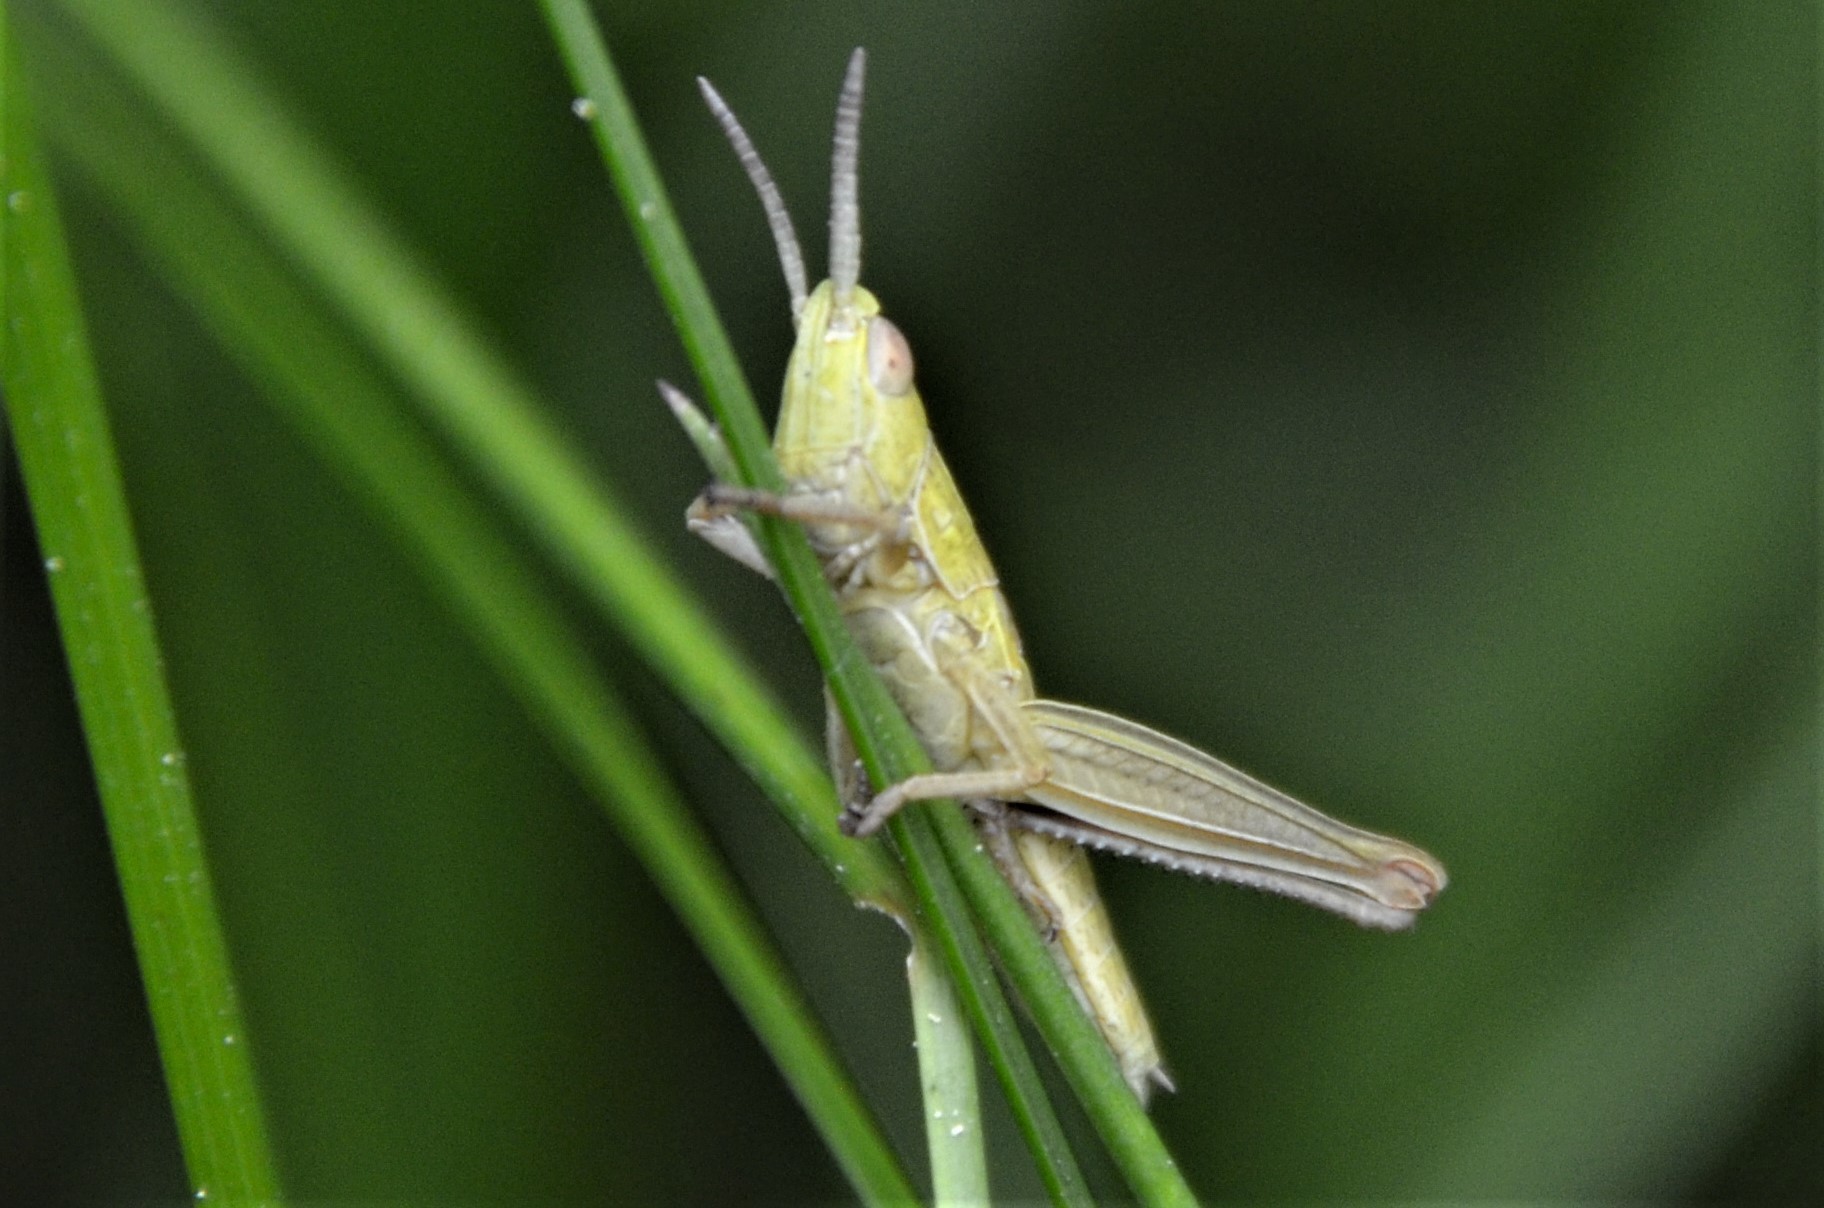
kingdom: Animalia
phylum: Arthropoda
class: Insecta
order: Orthoptera
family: Acrididae
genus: Euthystira
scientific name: Euthystira brachyptera
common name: Small gold grasshopper
